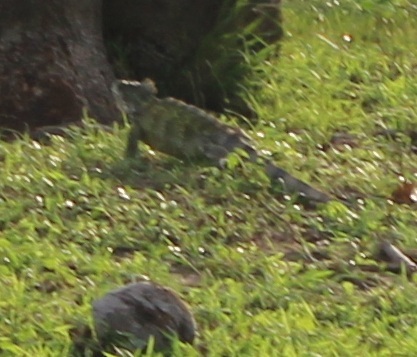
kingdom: Animalia
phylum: Chordata
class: Squamata
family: Iguanidae
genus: Iguana
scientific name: Iguana iguana
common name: Green iguana
